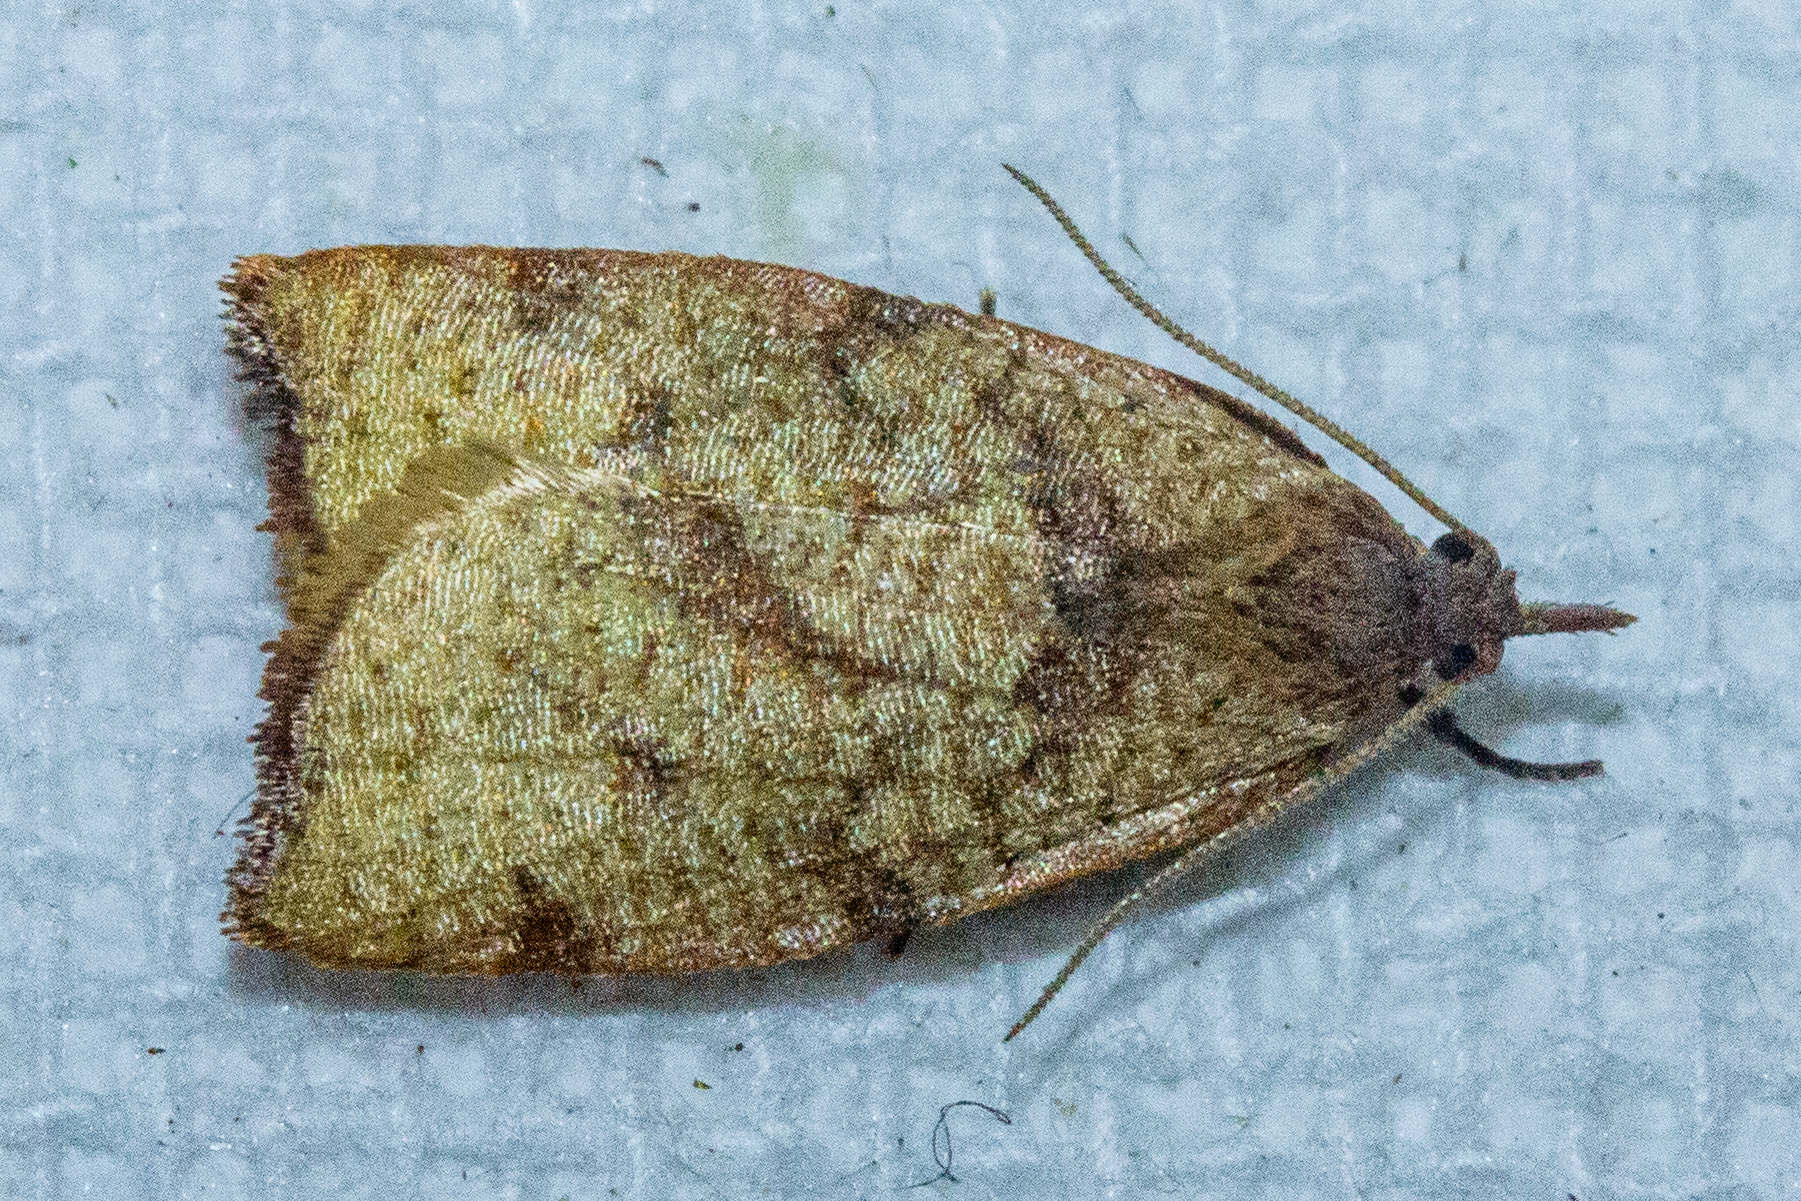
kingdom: Animalia
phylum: Arthropoda
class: Insecta
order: Lepidoptera
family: Tortricidae
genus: Apoctena
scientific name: Apoctena flavescens
